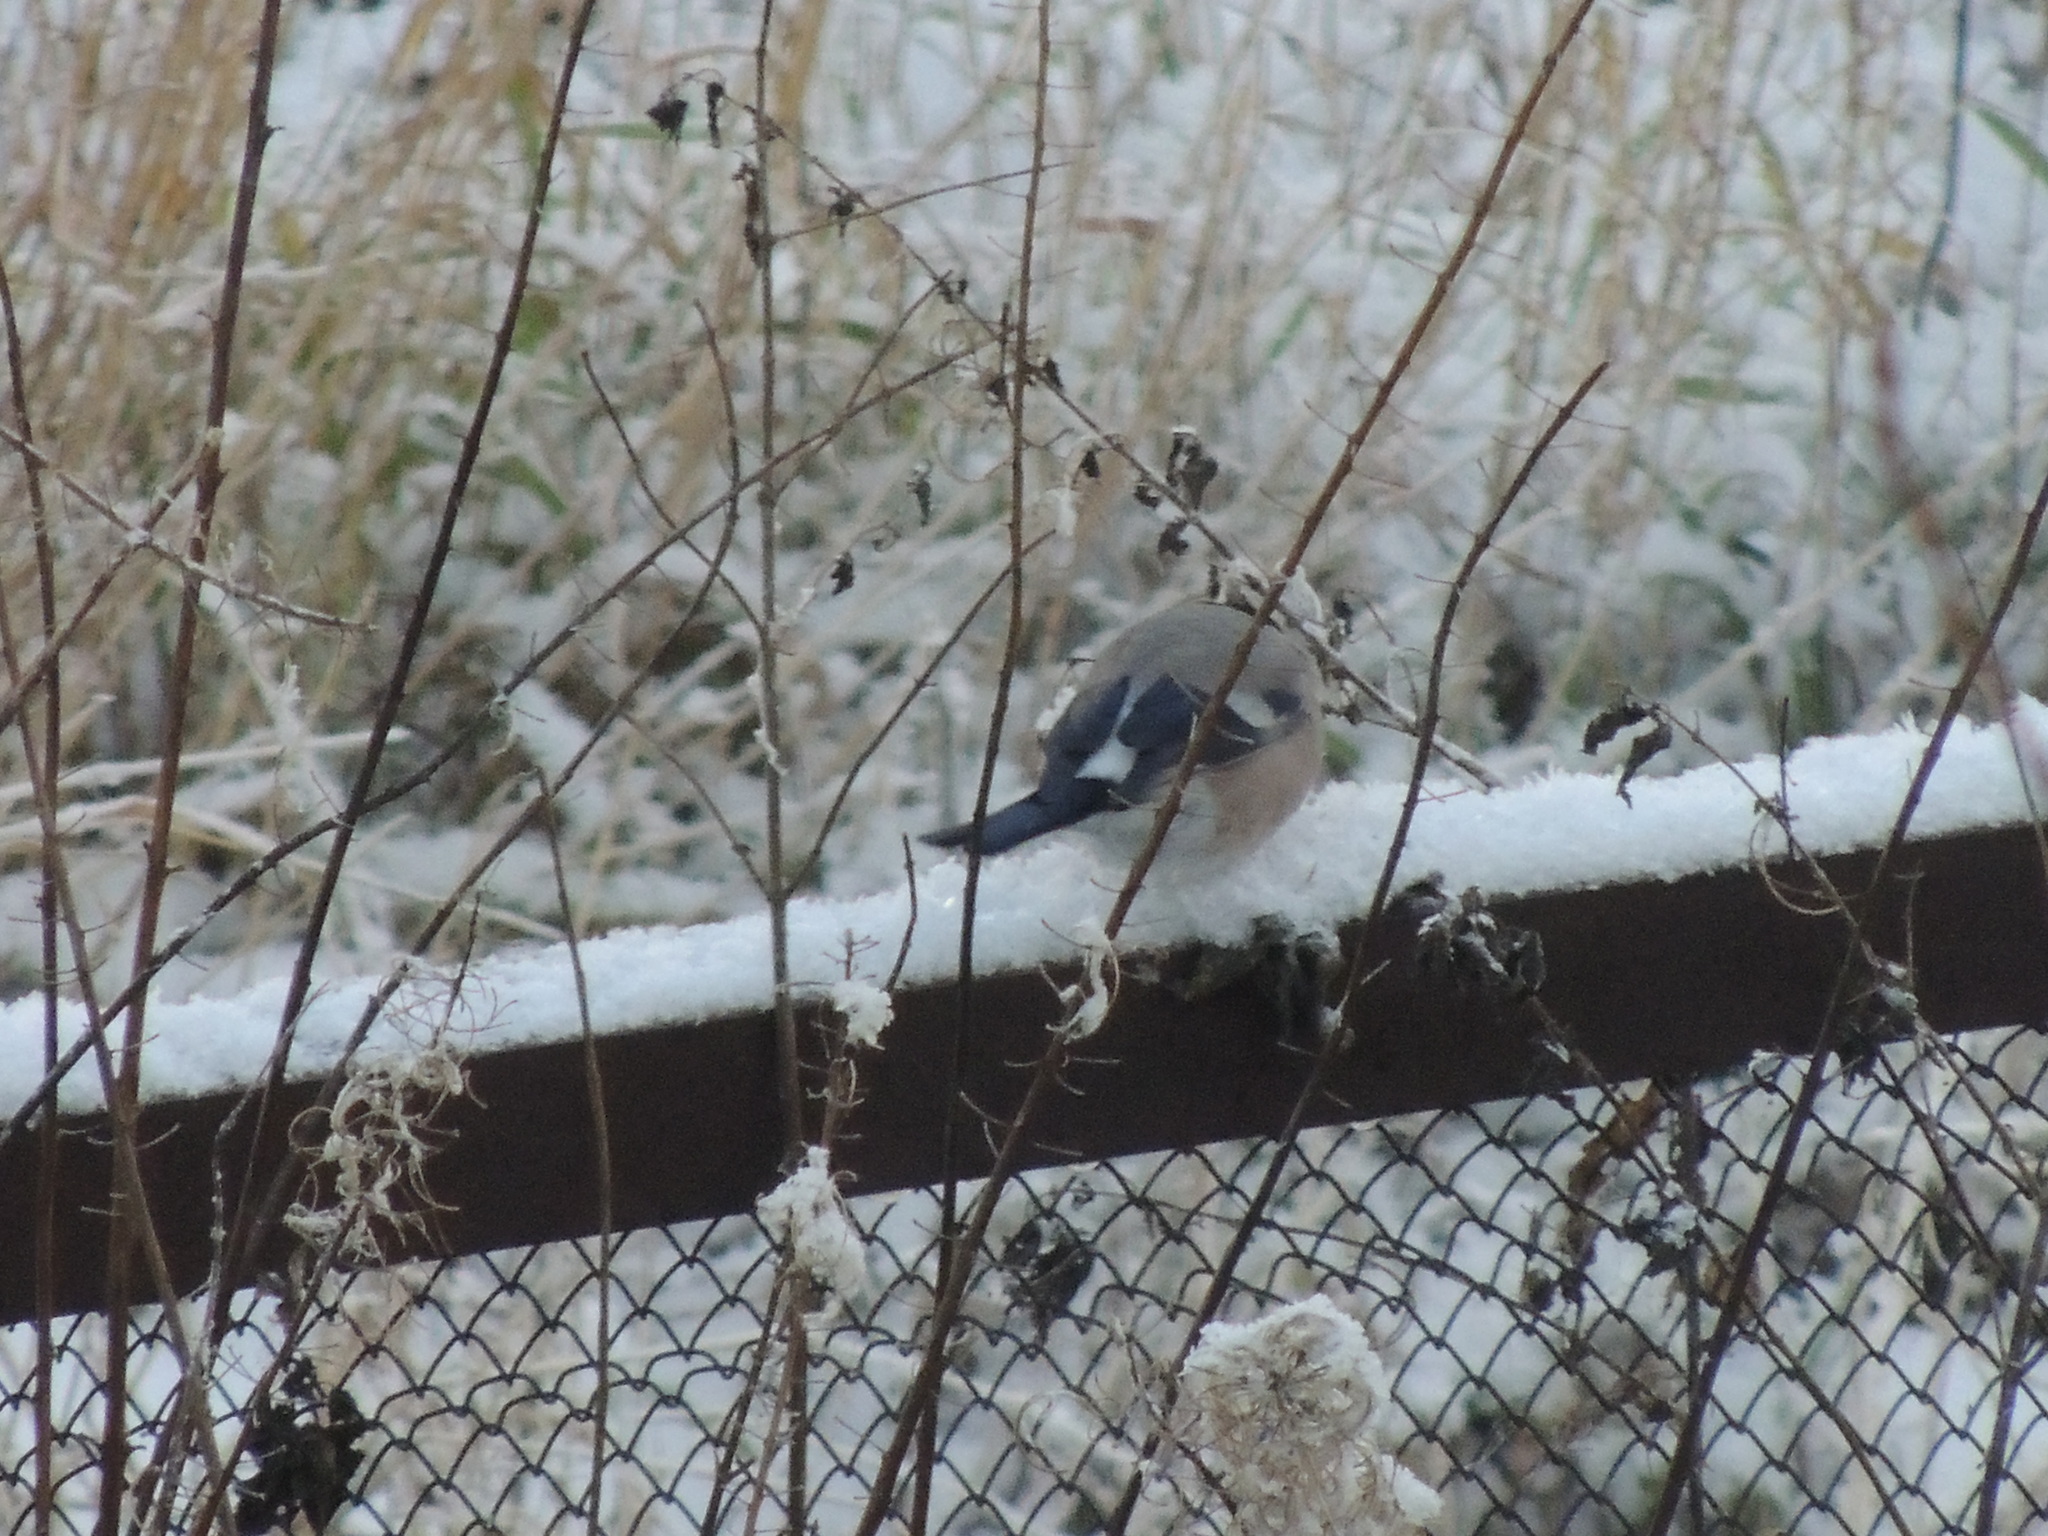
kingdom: Animalia
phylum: Chordata
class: Aves
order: Passeriformes
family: Fringillidae
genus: Pyrrhula
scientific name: Pyrrhula pyrrhula
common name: Eurasian bullfinch
